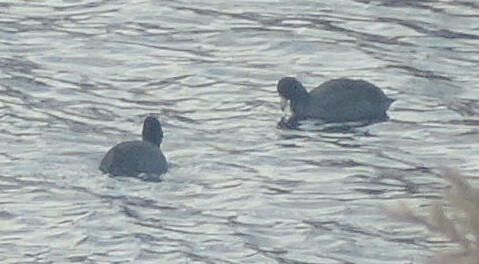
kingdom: Animalia
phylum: Chordata
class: Aves
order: Gruiformes
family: Rallidae
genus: Fulica
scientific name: Fulica americana
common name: American coot
